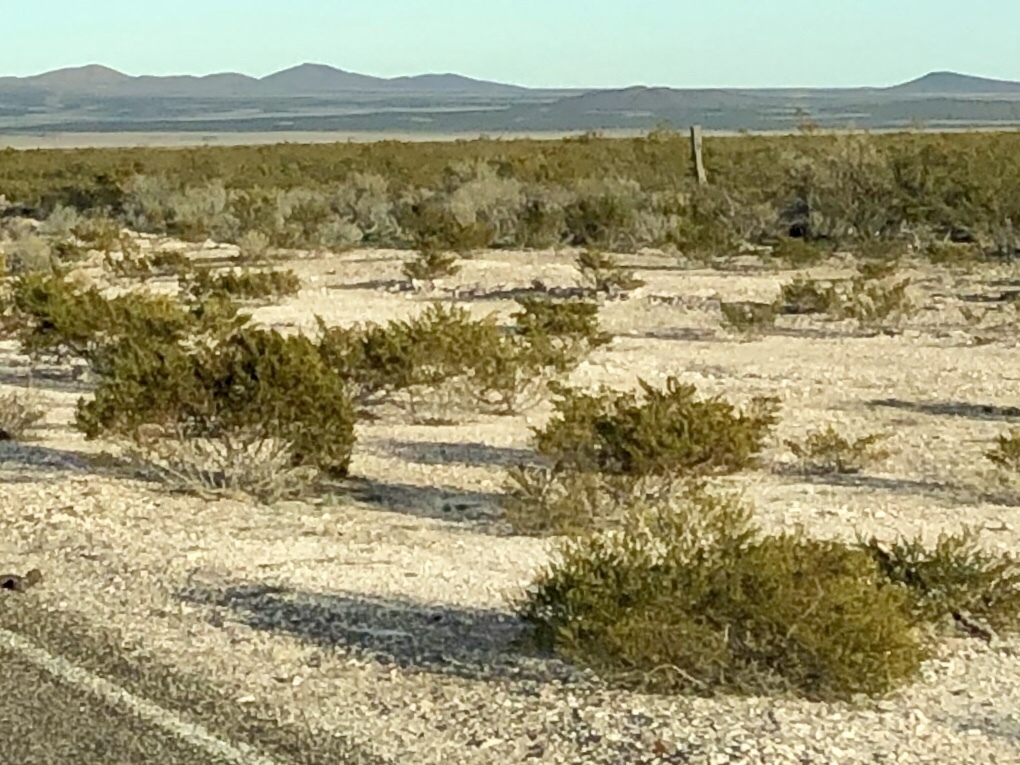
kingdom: Plantae
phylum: Tracheophyta
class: Magnoliopsida
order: Zygophyllales
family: Zygophyllaceae
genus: Larrea
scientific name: Larrea tridentata
